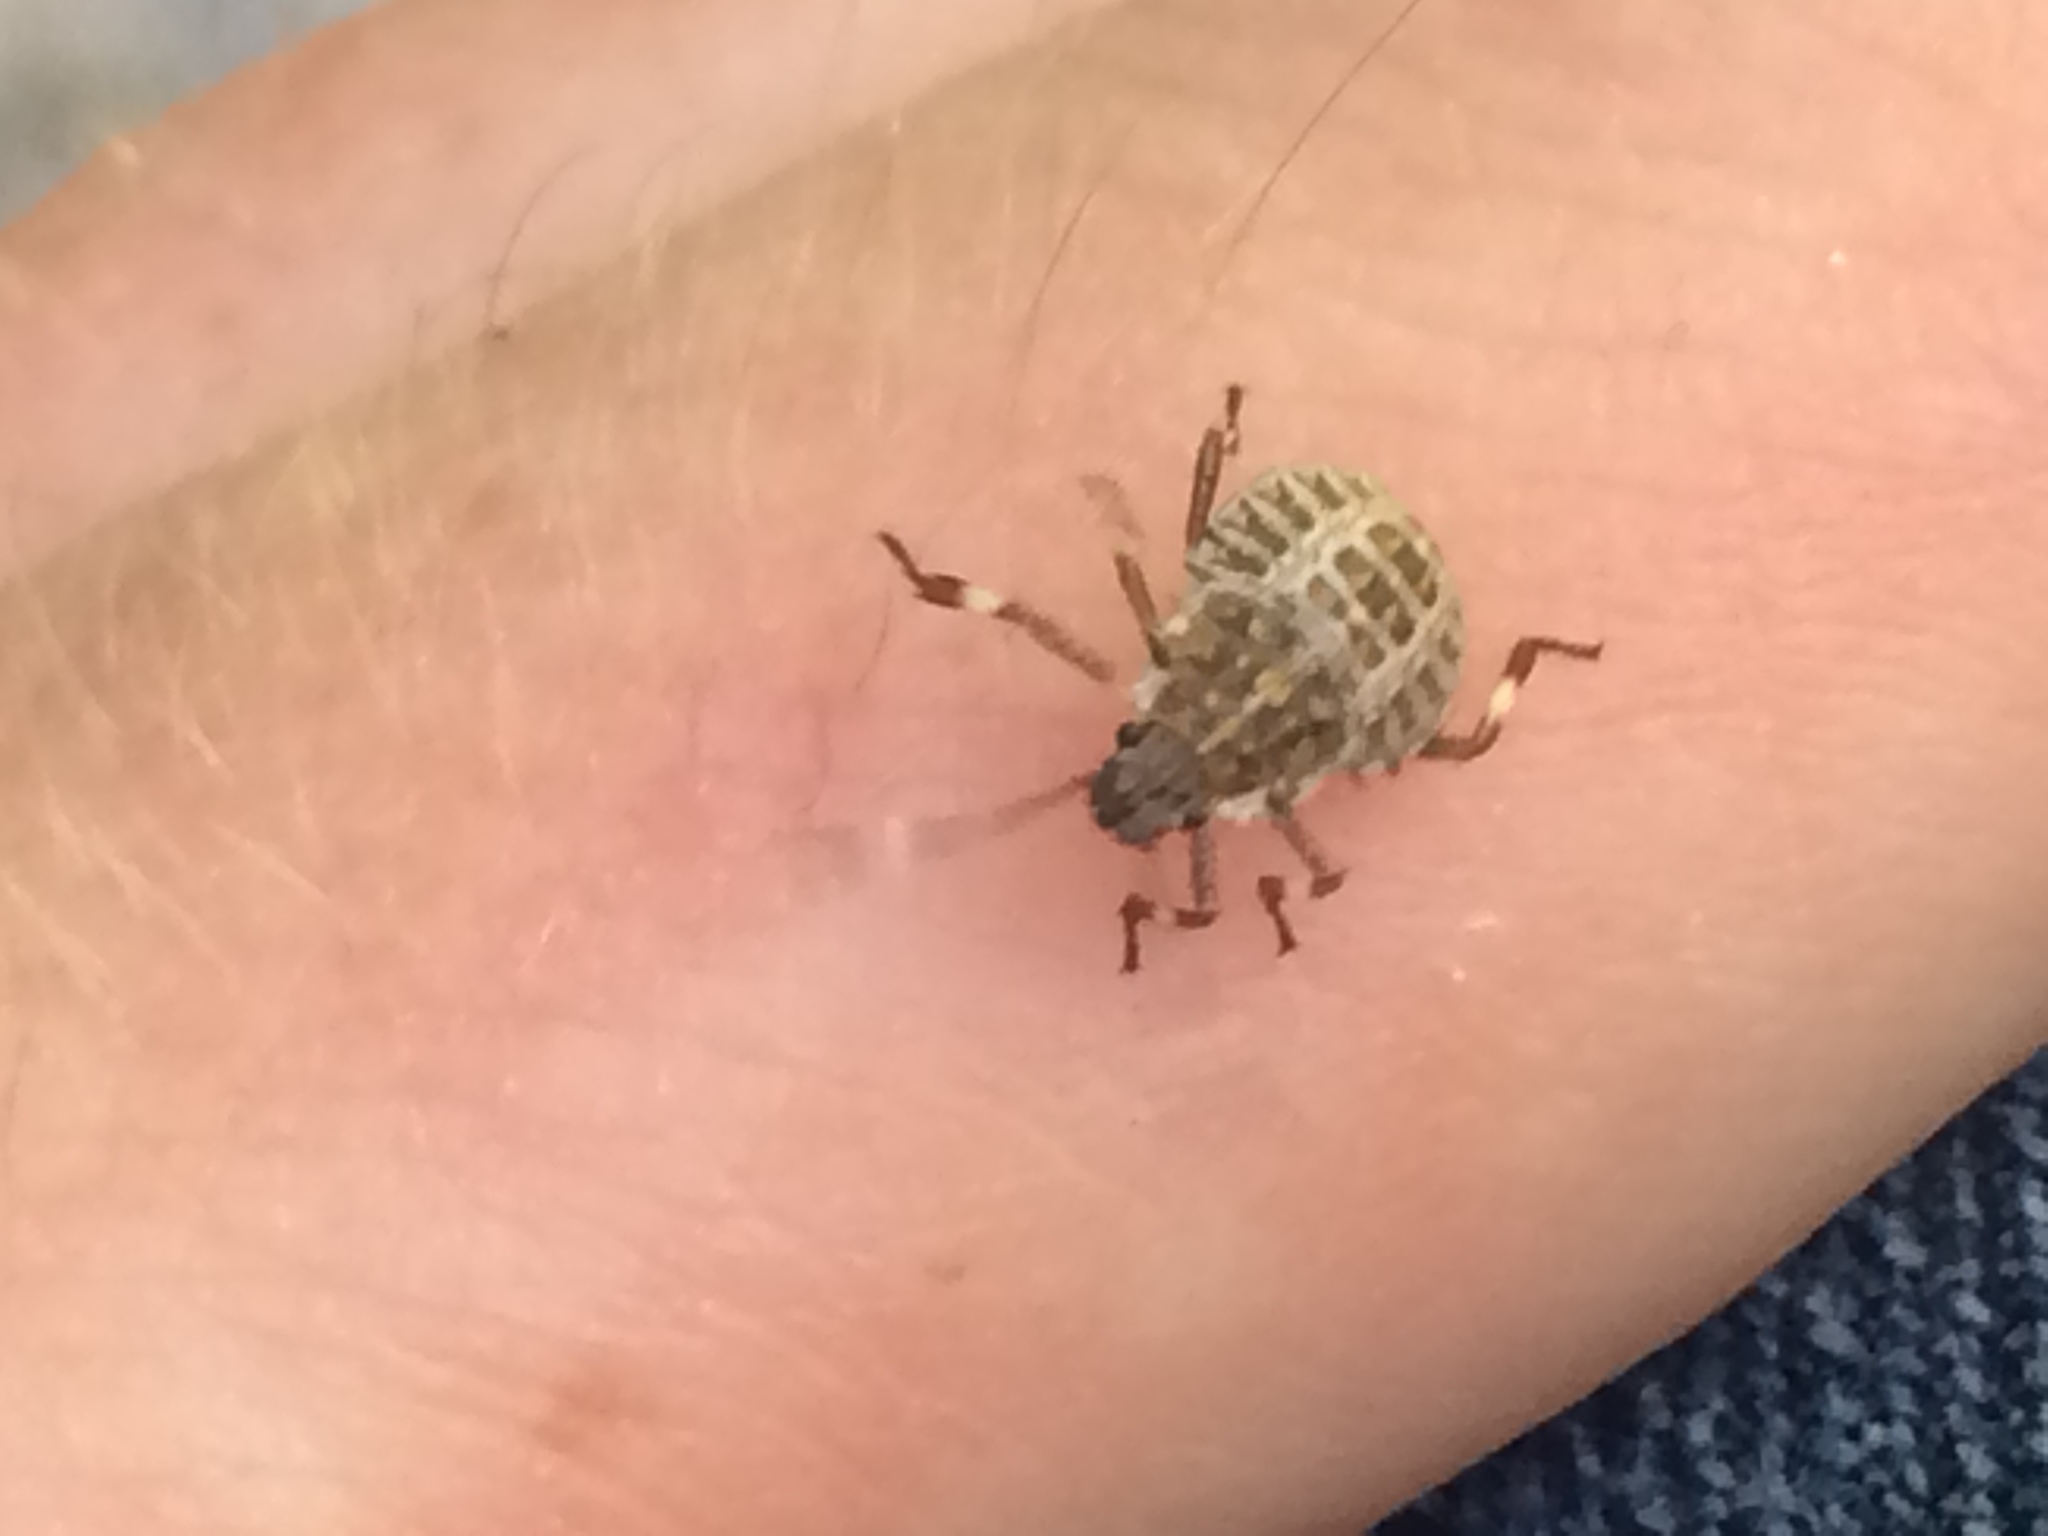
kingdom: Animalia
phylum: Arthropoda
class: Insecta
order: Hemiptera
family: Pentatomidae
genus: Halyomorpha
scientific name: Halyomorpha halys
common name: Brown marmorated stink bug
